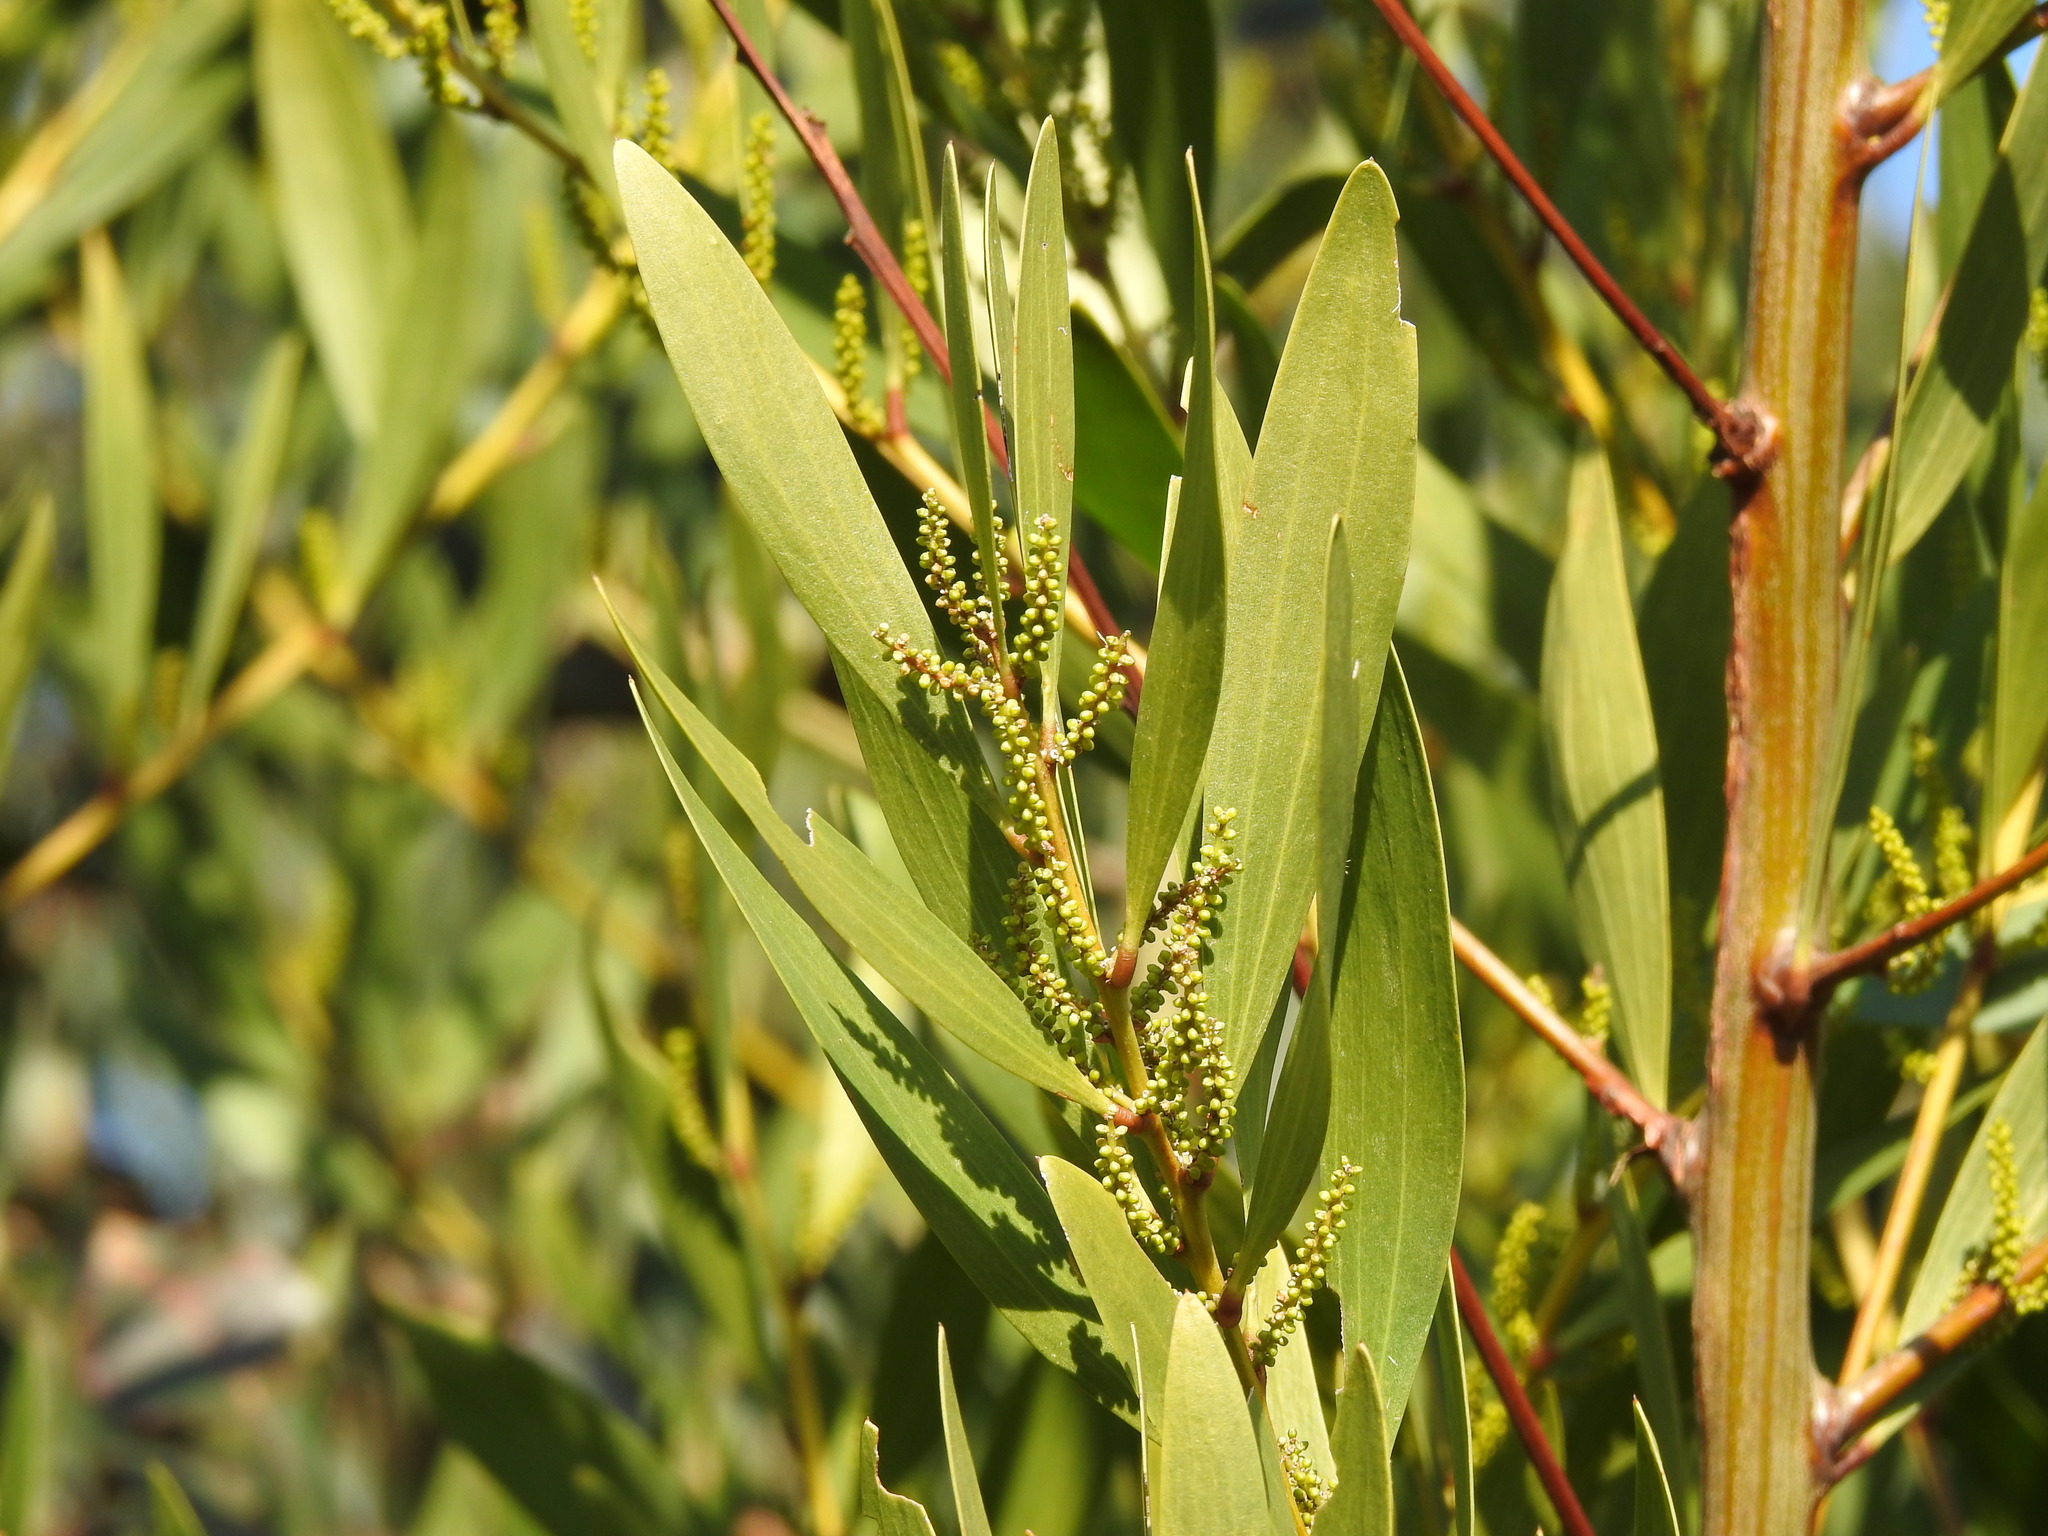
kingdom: Plantae
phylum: Tracheophyta
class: Magnoliopsida
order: Fabales
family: Fabaceae
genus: Acacia
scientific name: Acacia longifolia
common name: Sydney golden wattle
